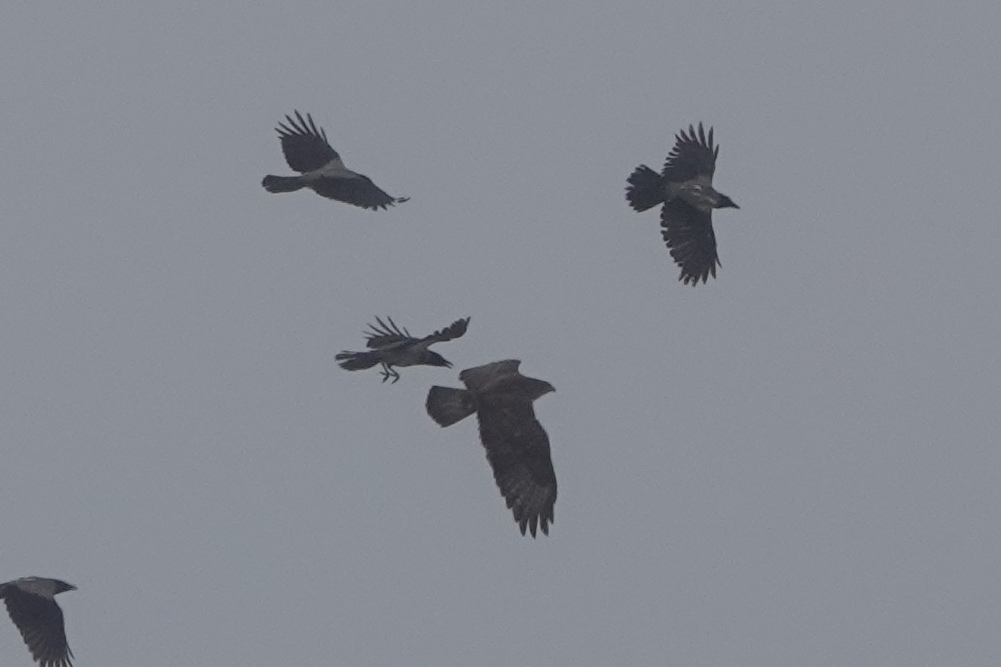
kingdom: Animalia
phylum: Chordata
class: Aves
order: Accipitriformes
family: Accipitridae
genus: Buteo
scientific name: Buteo buteo
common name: Common buzzard
